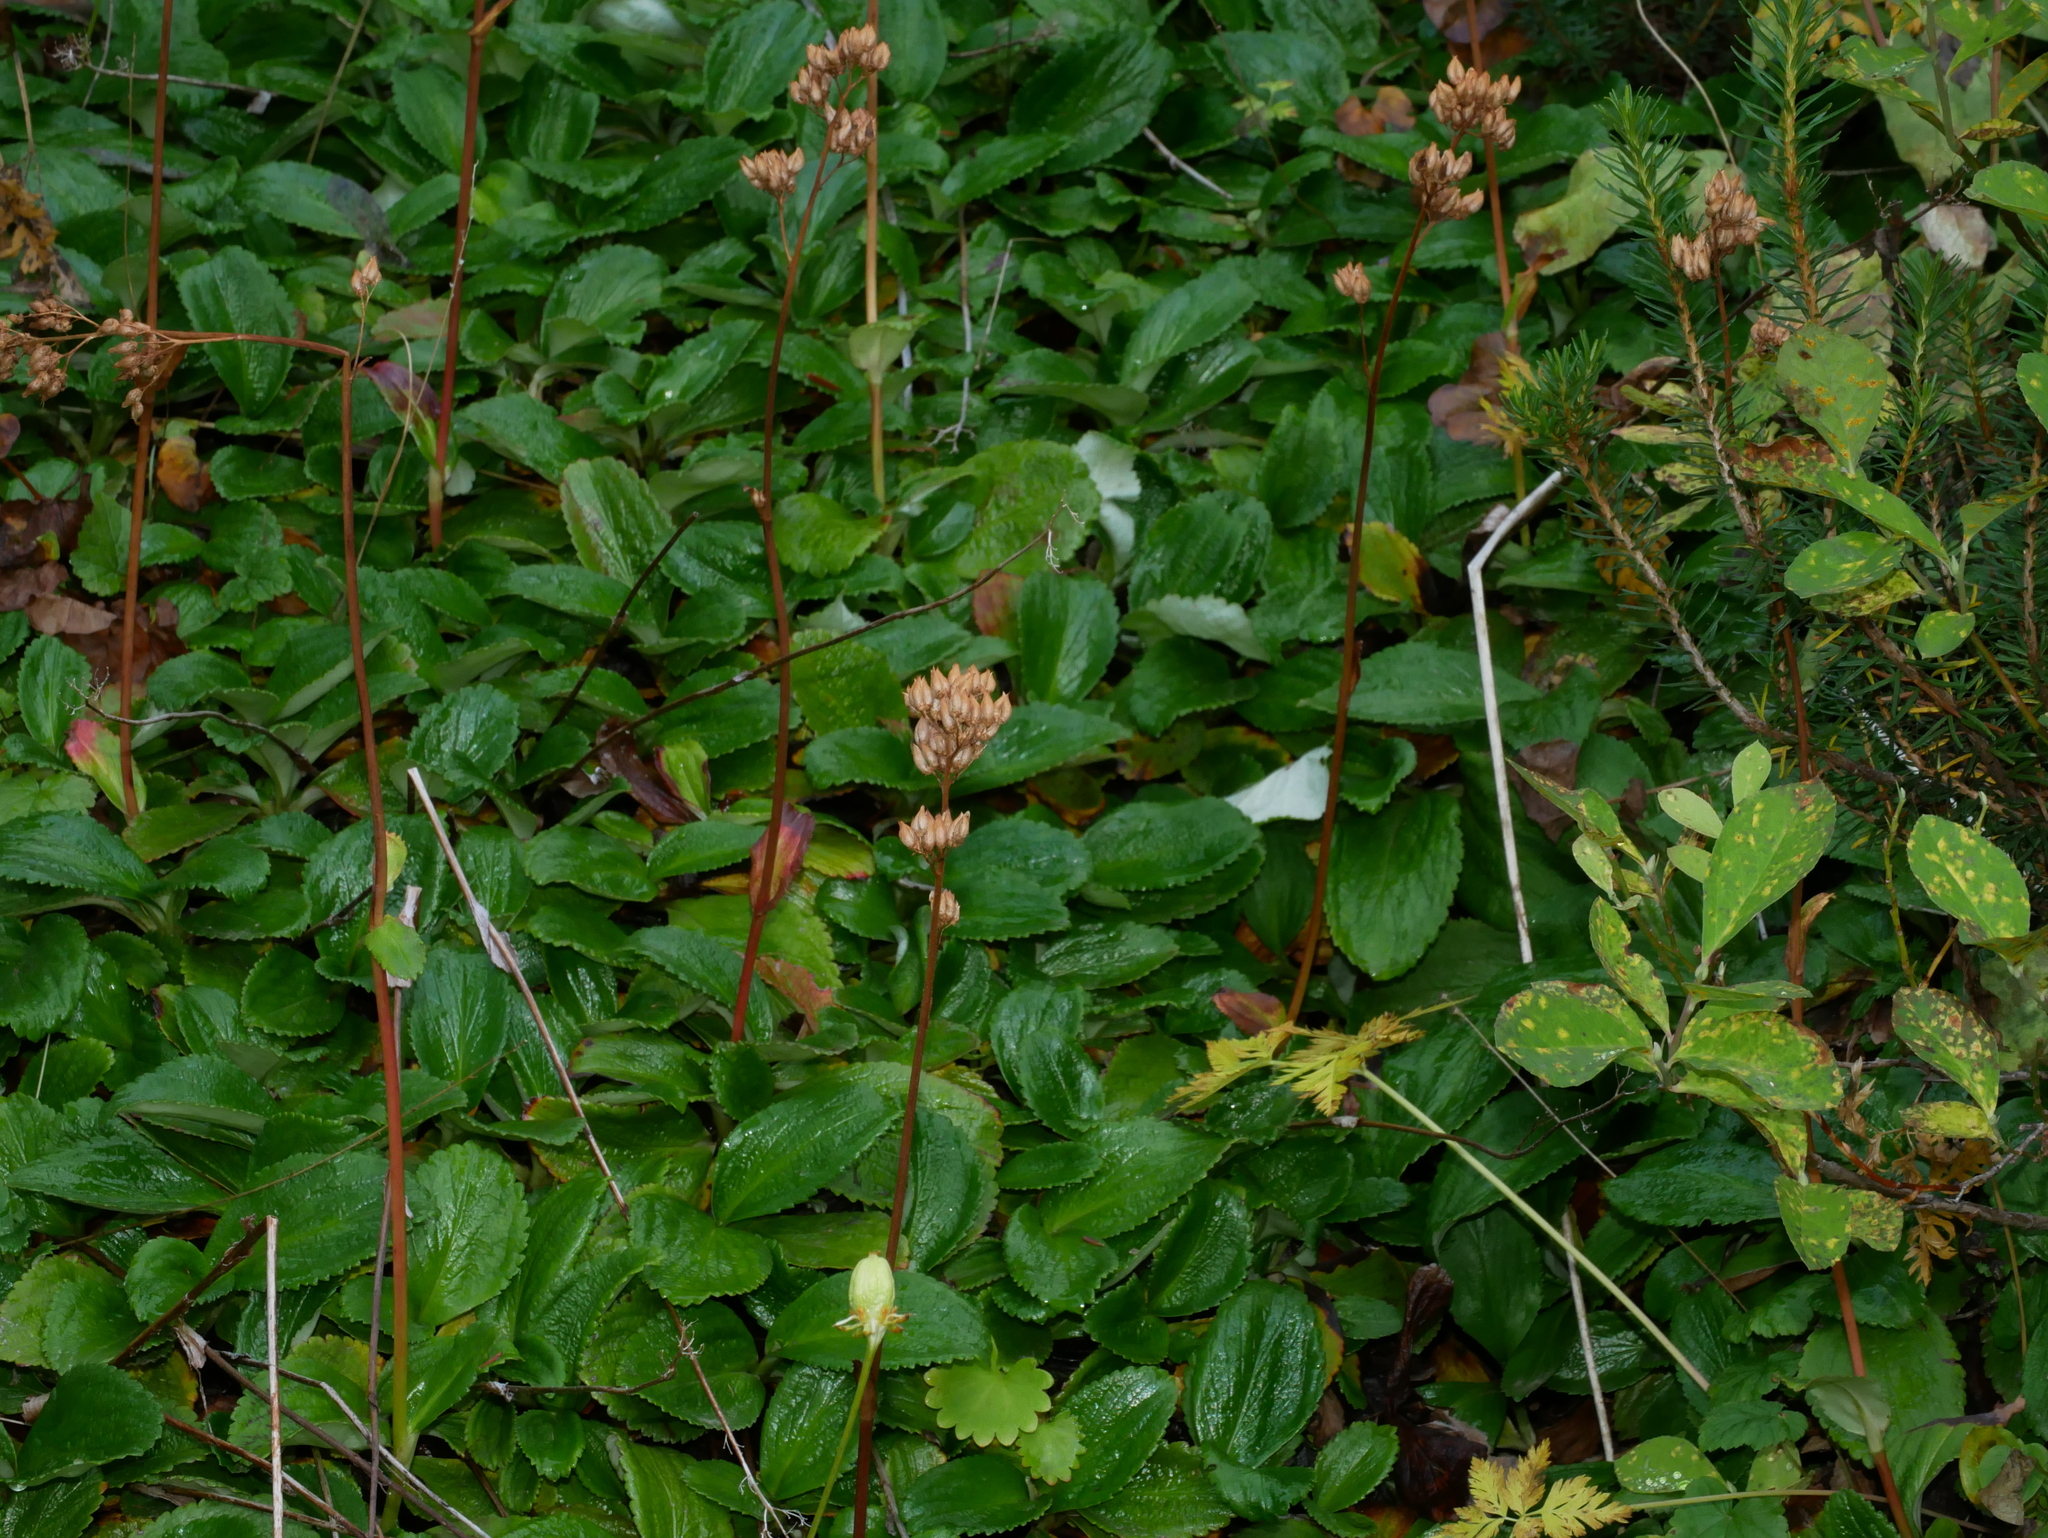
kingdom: Plantae
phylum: Tracheophyta
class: Magnoliopsida
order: Saxifragales
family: Saxifragaceae
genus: Leptarrhena
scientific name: Leptarrhena pyrolifolia
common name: Leatherleaf-saxifrage
